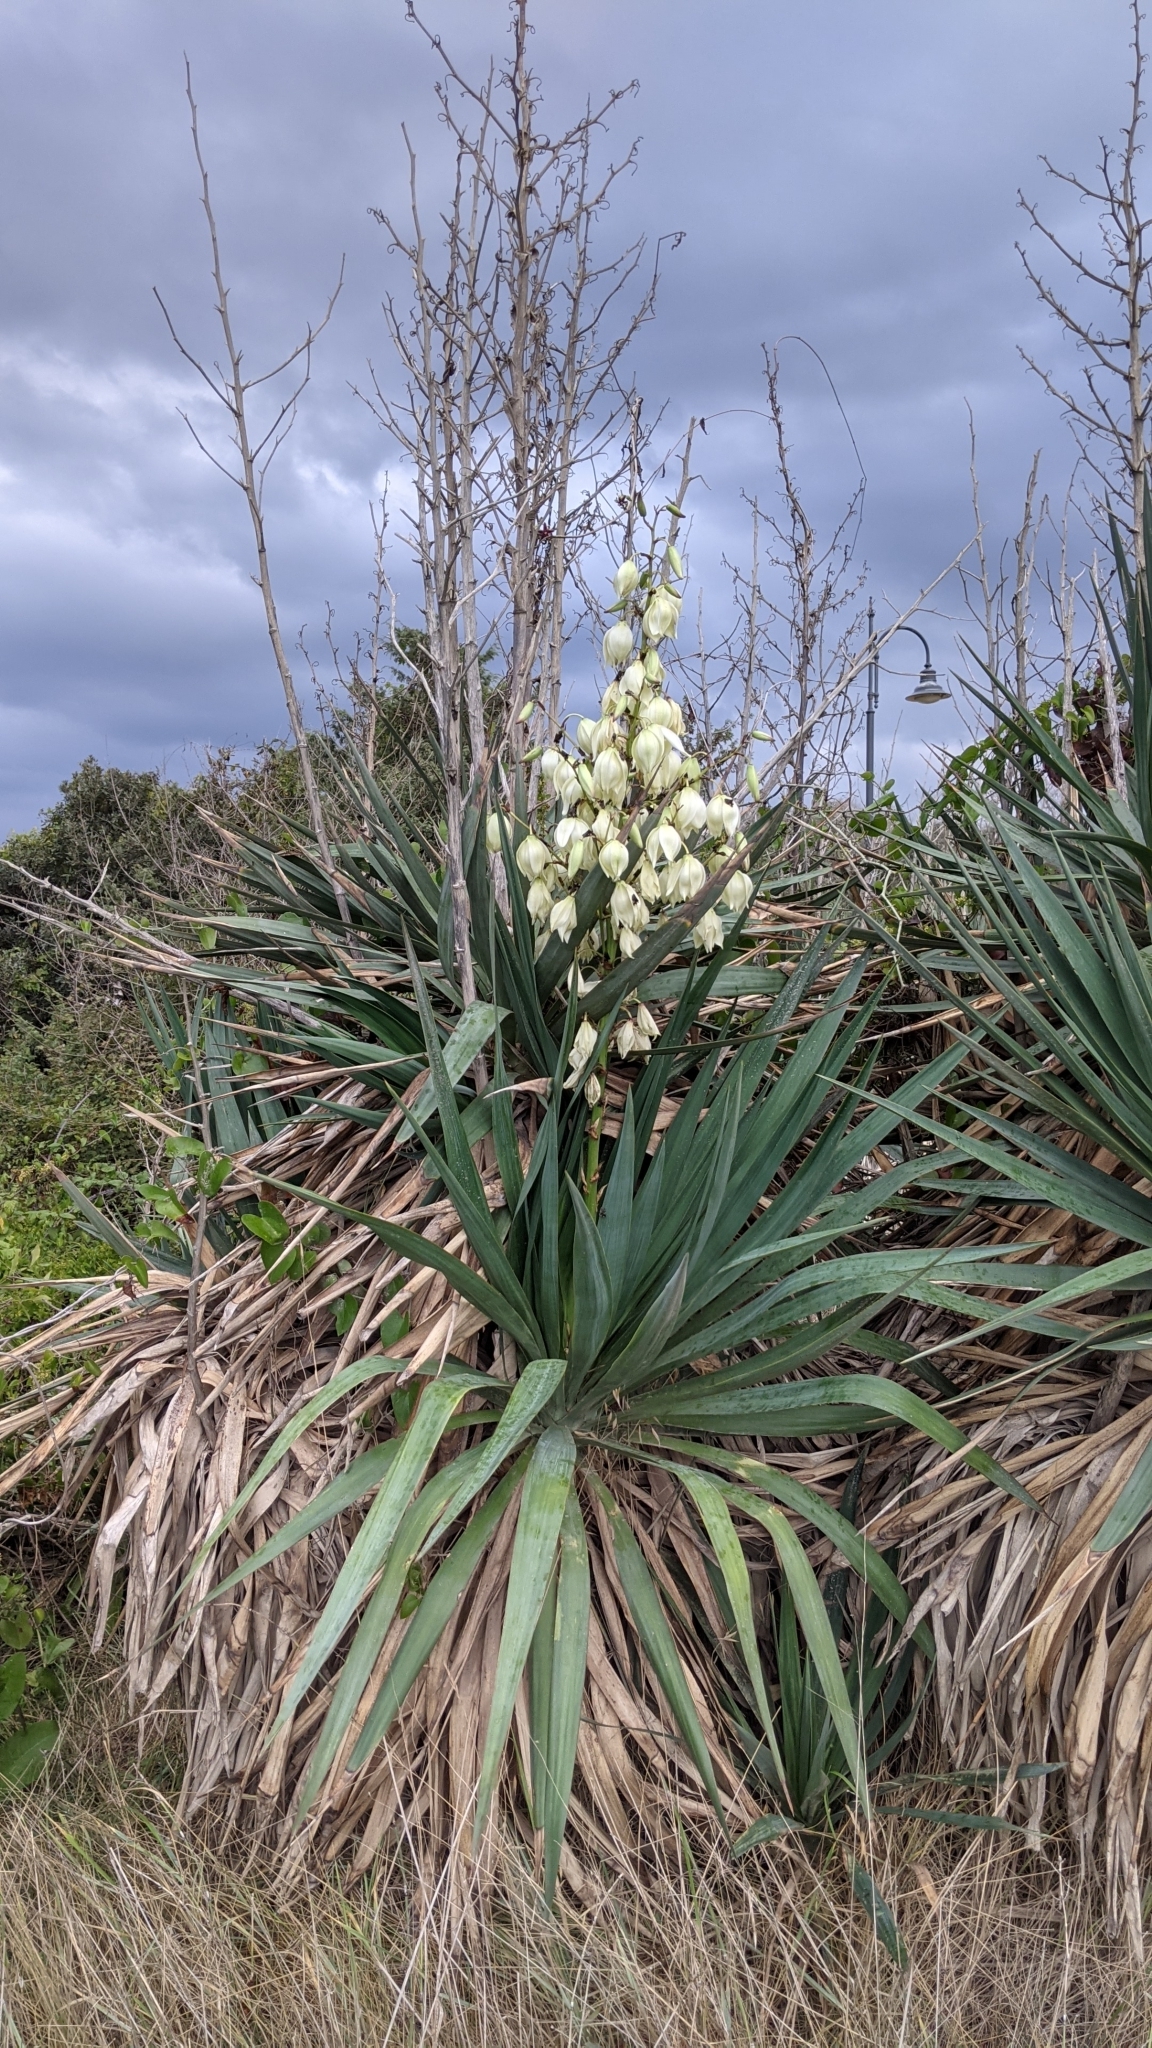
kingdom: Plantae
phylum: Tracheophyta
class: Liliopsida
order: Asparagales
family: Asparagaceae
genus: Yucca
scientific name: Yucca gloriosa
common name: Spanish-dagger
